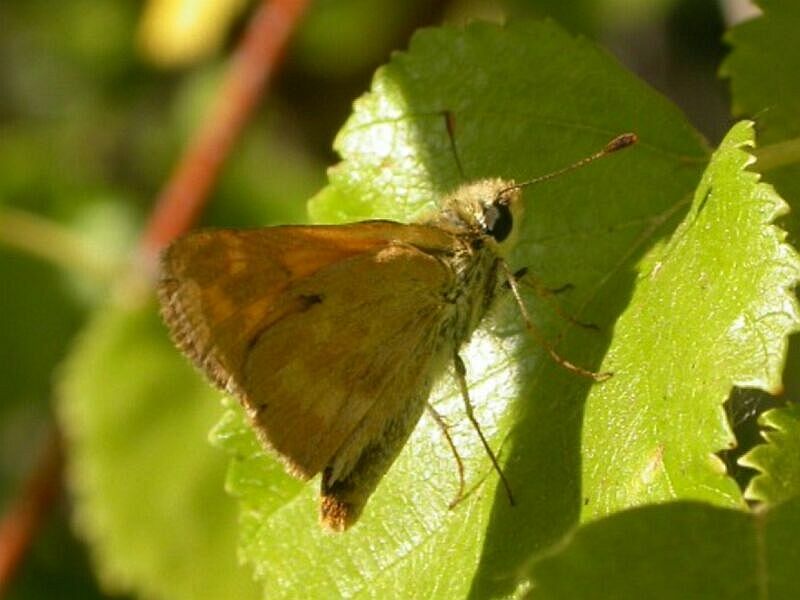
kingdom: Animalia
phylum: Arthropoda
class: Insecta
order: Lepidoptera
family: Hesperiidae
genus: Ochlodes
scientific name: Ochlodes sylvanoides
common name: Woodland skipper
